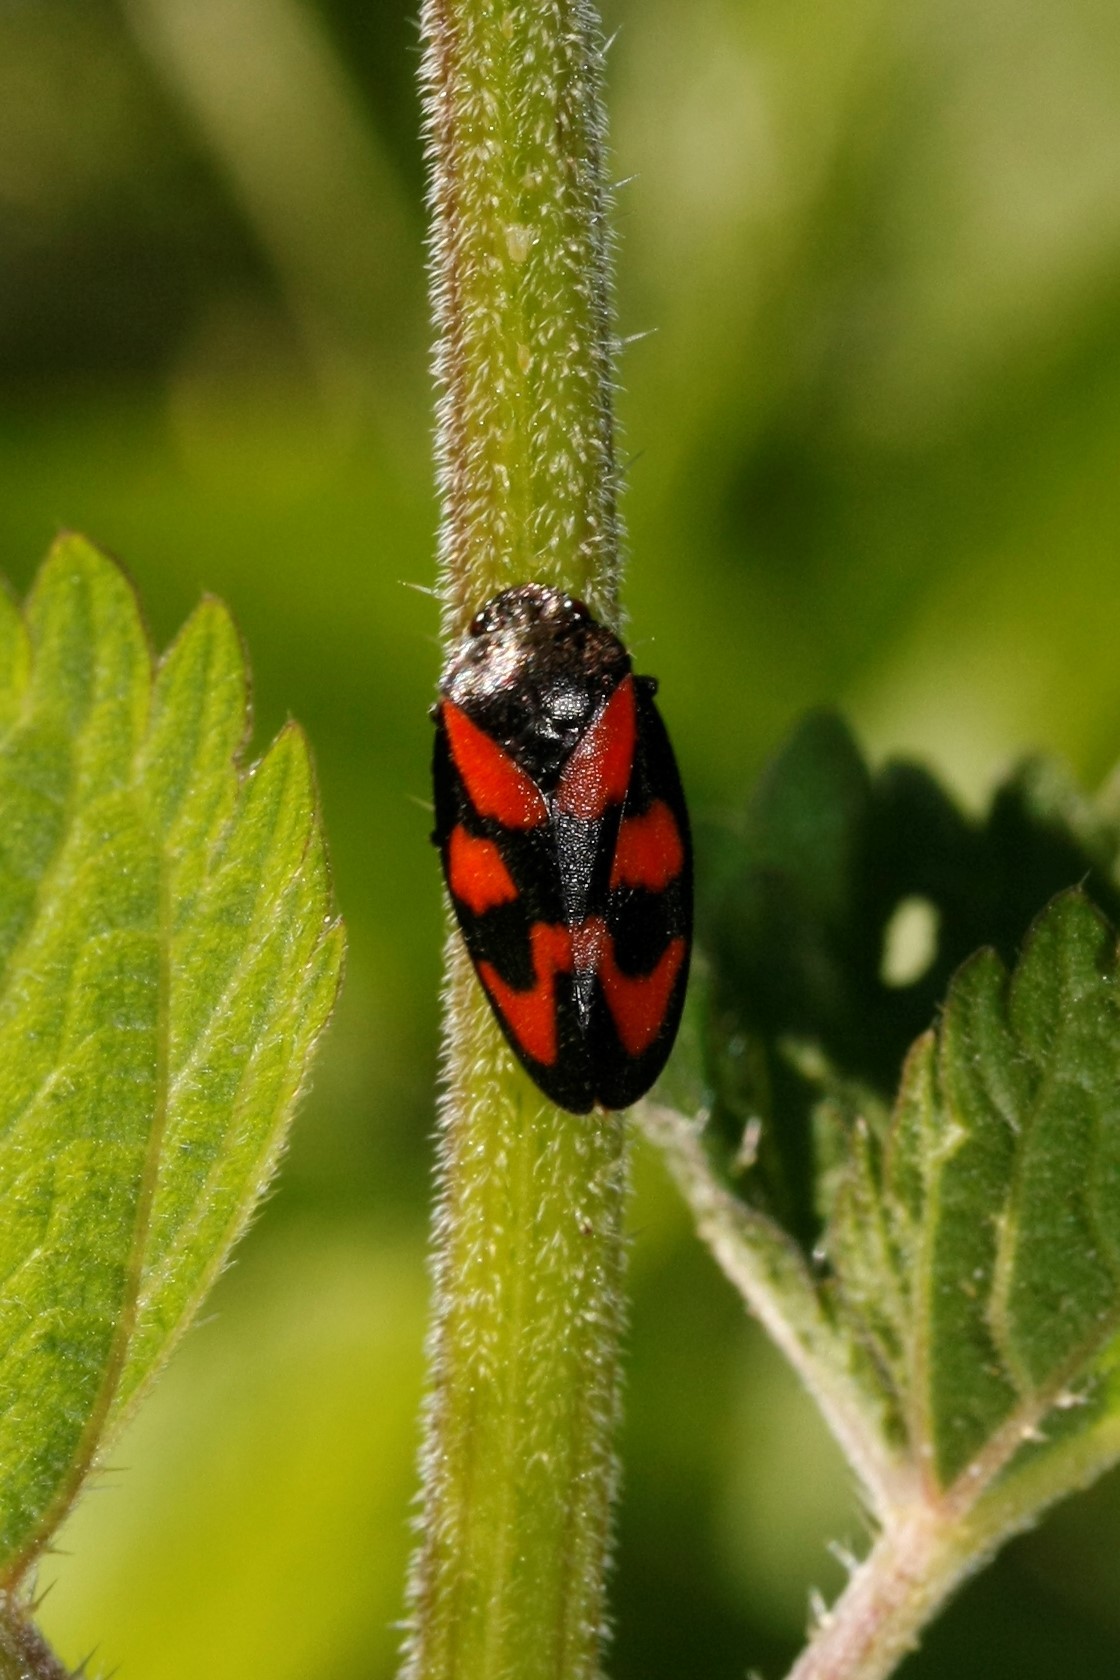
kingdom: Animalia
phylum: Arthropoda
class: Insecta
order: Hemiptera
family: Cercopidae
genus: Cercopis
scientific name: Cercopis vulnerata
